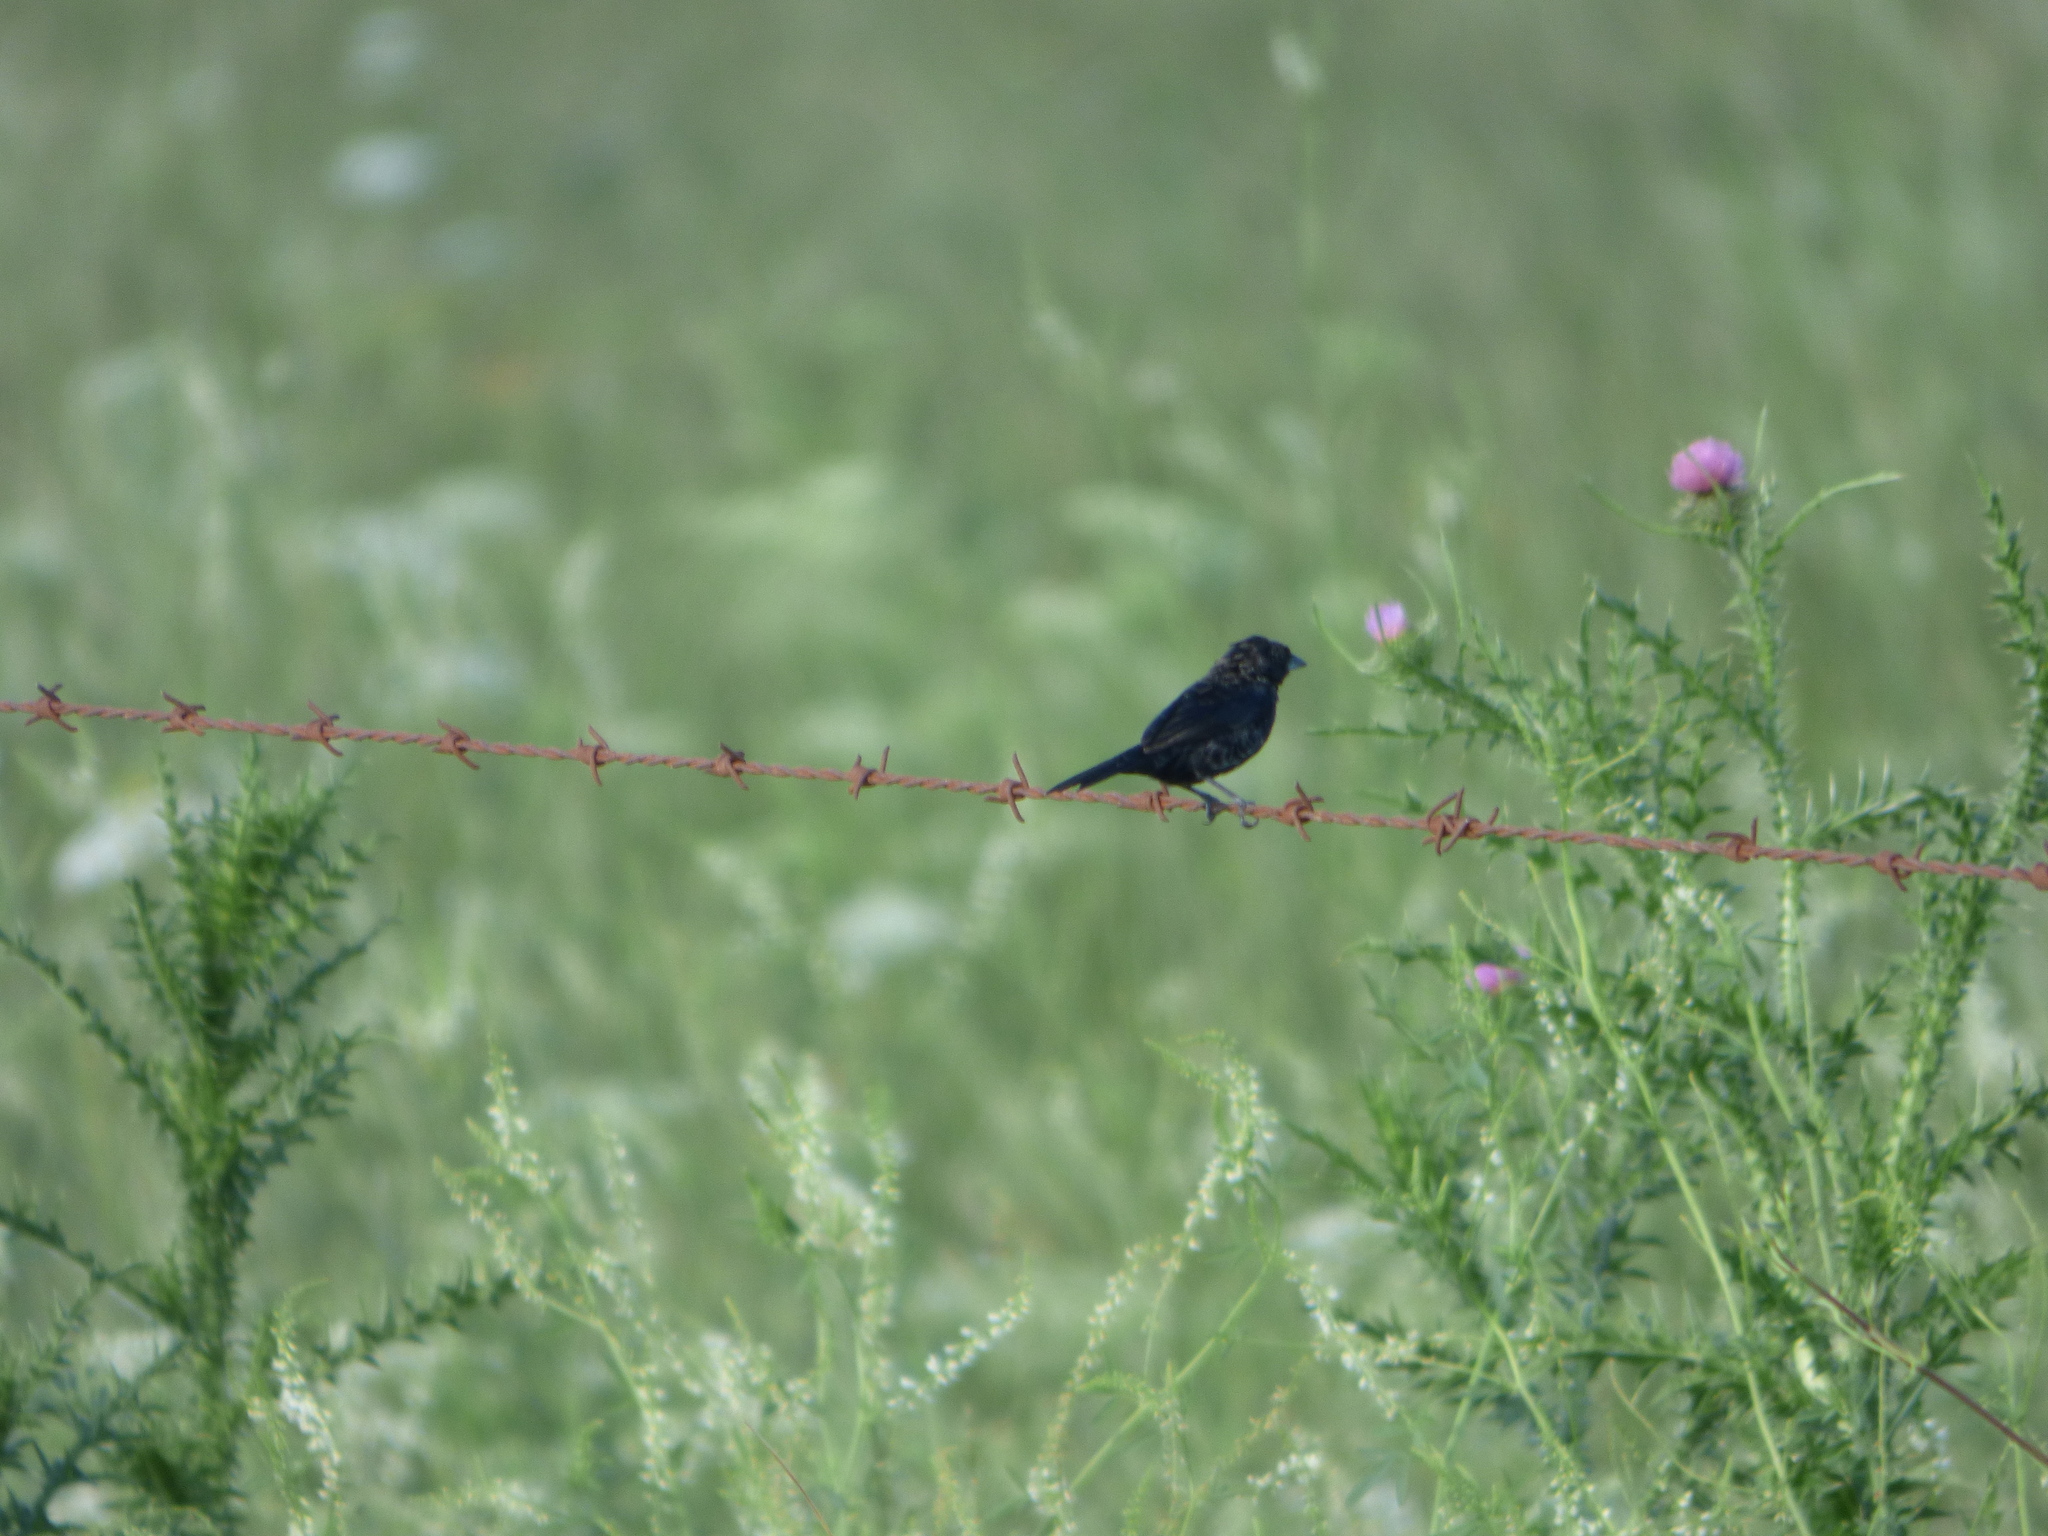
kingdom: Animalia
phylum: Chordata
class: Aves
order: Passeriformes
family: Thraupidae
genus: Volatinia
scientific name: Volatinia jacarina
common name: Blue-black grassquit
